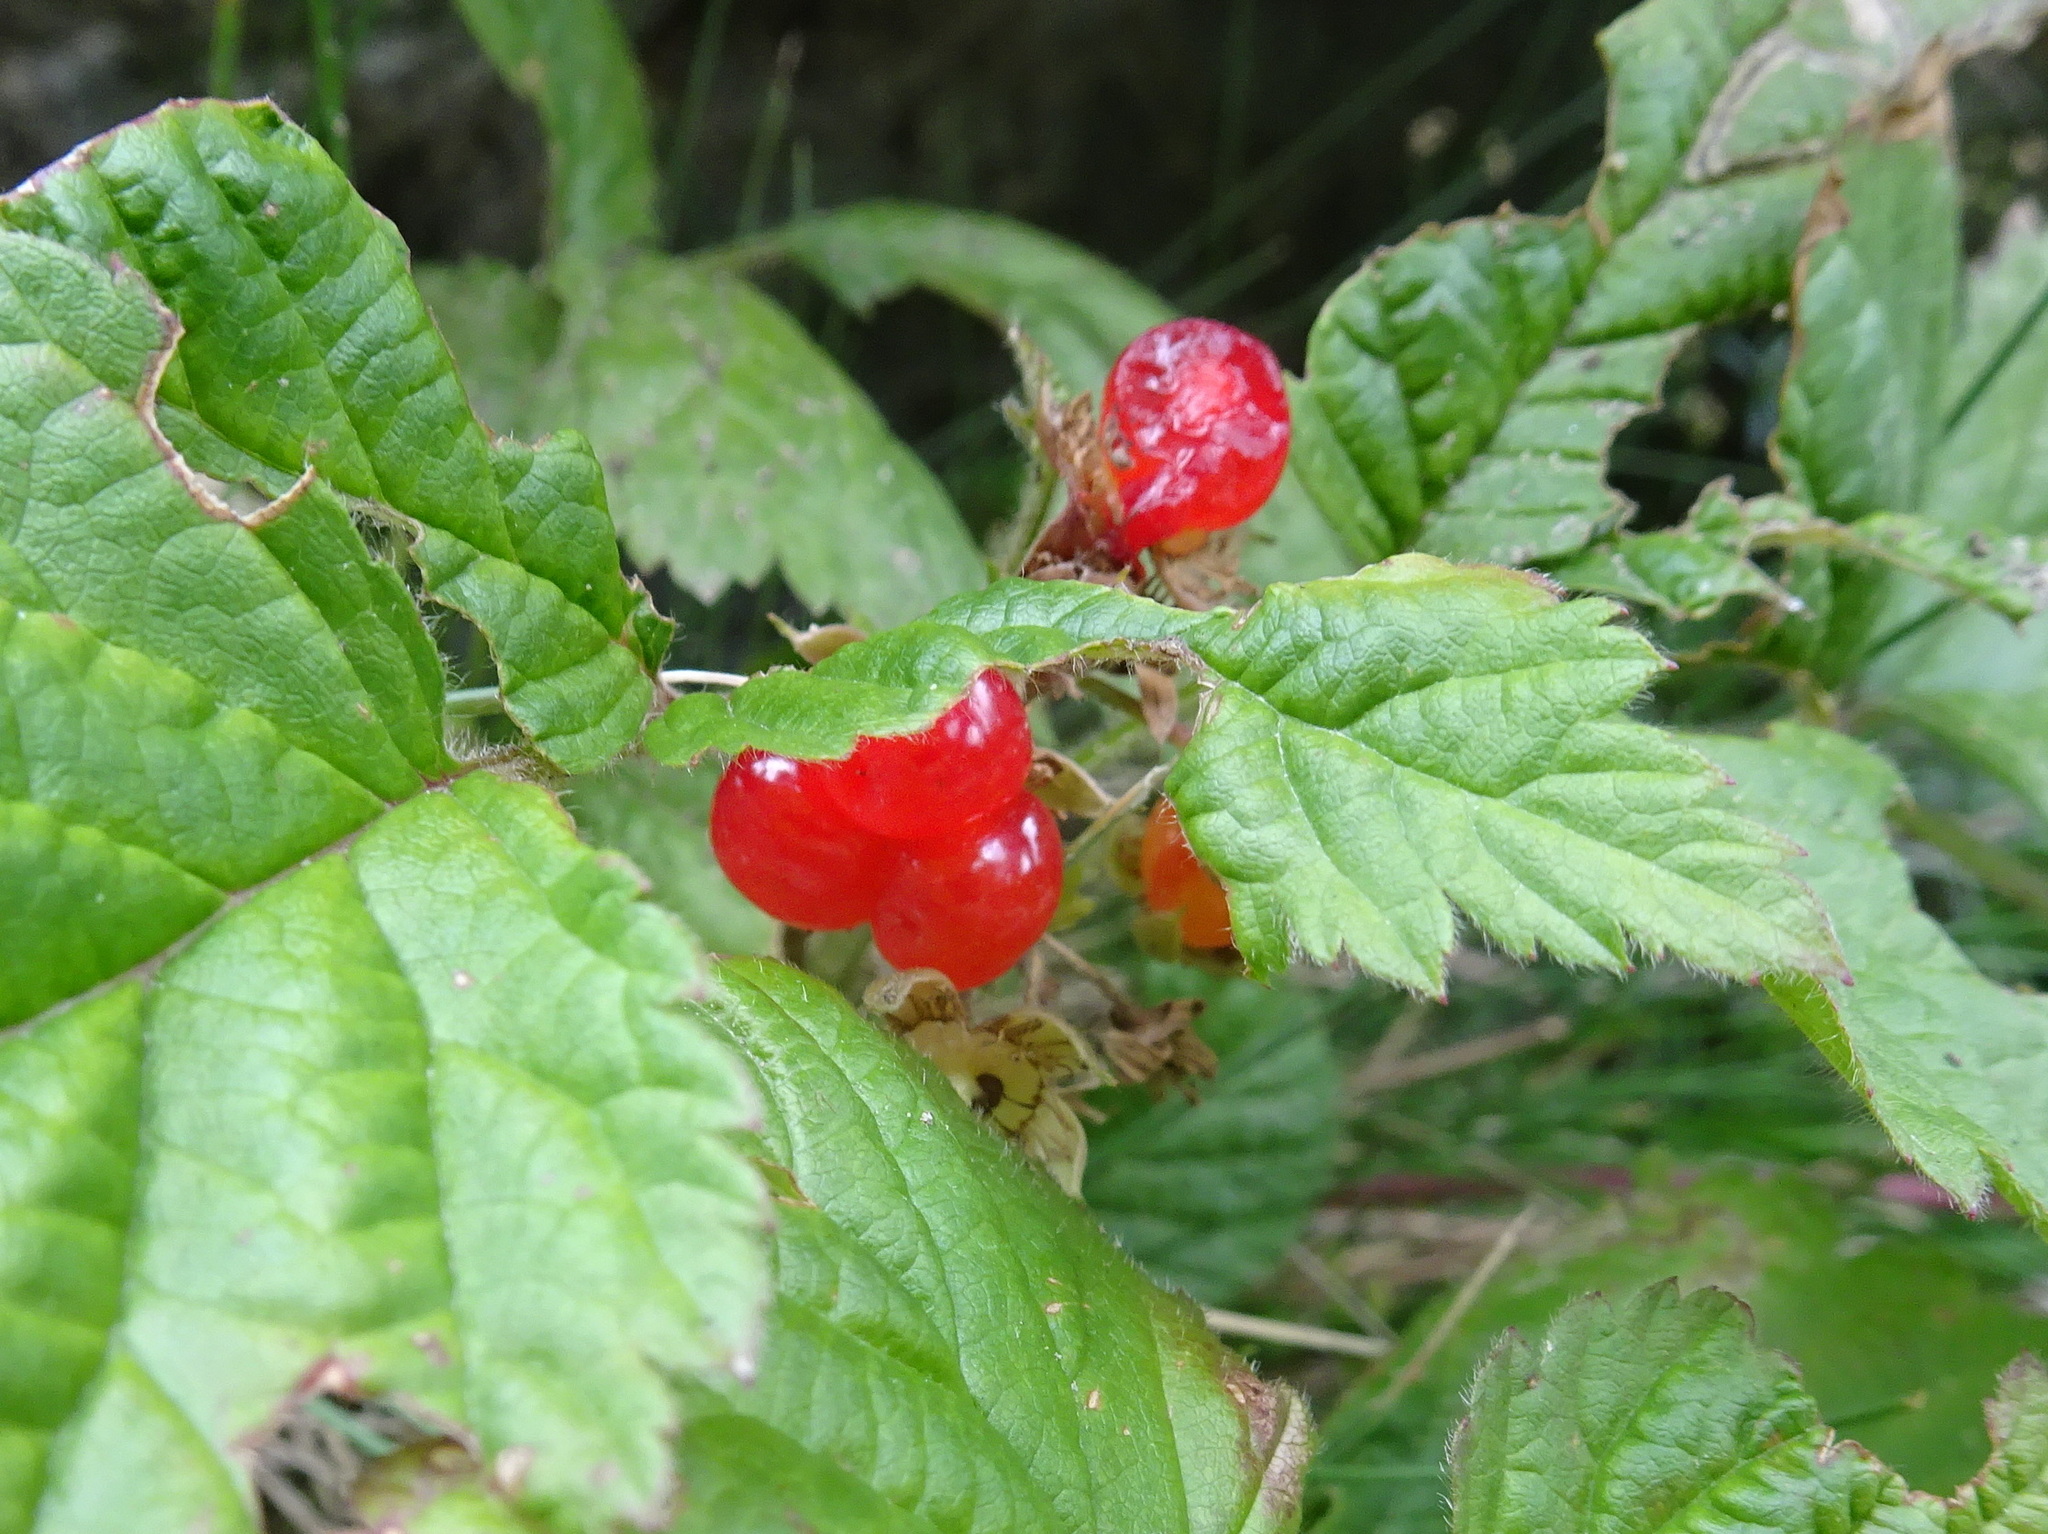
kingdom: Plantae
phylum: Tracheophyta
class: Magnoliopsida
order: Rosales
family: Rosaceae
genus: Rubus
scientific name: Rubus saxatilis
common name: Stone bramble
